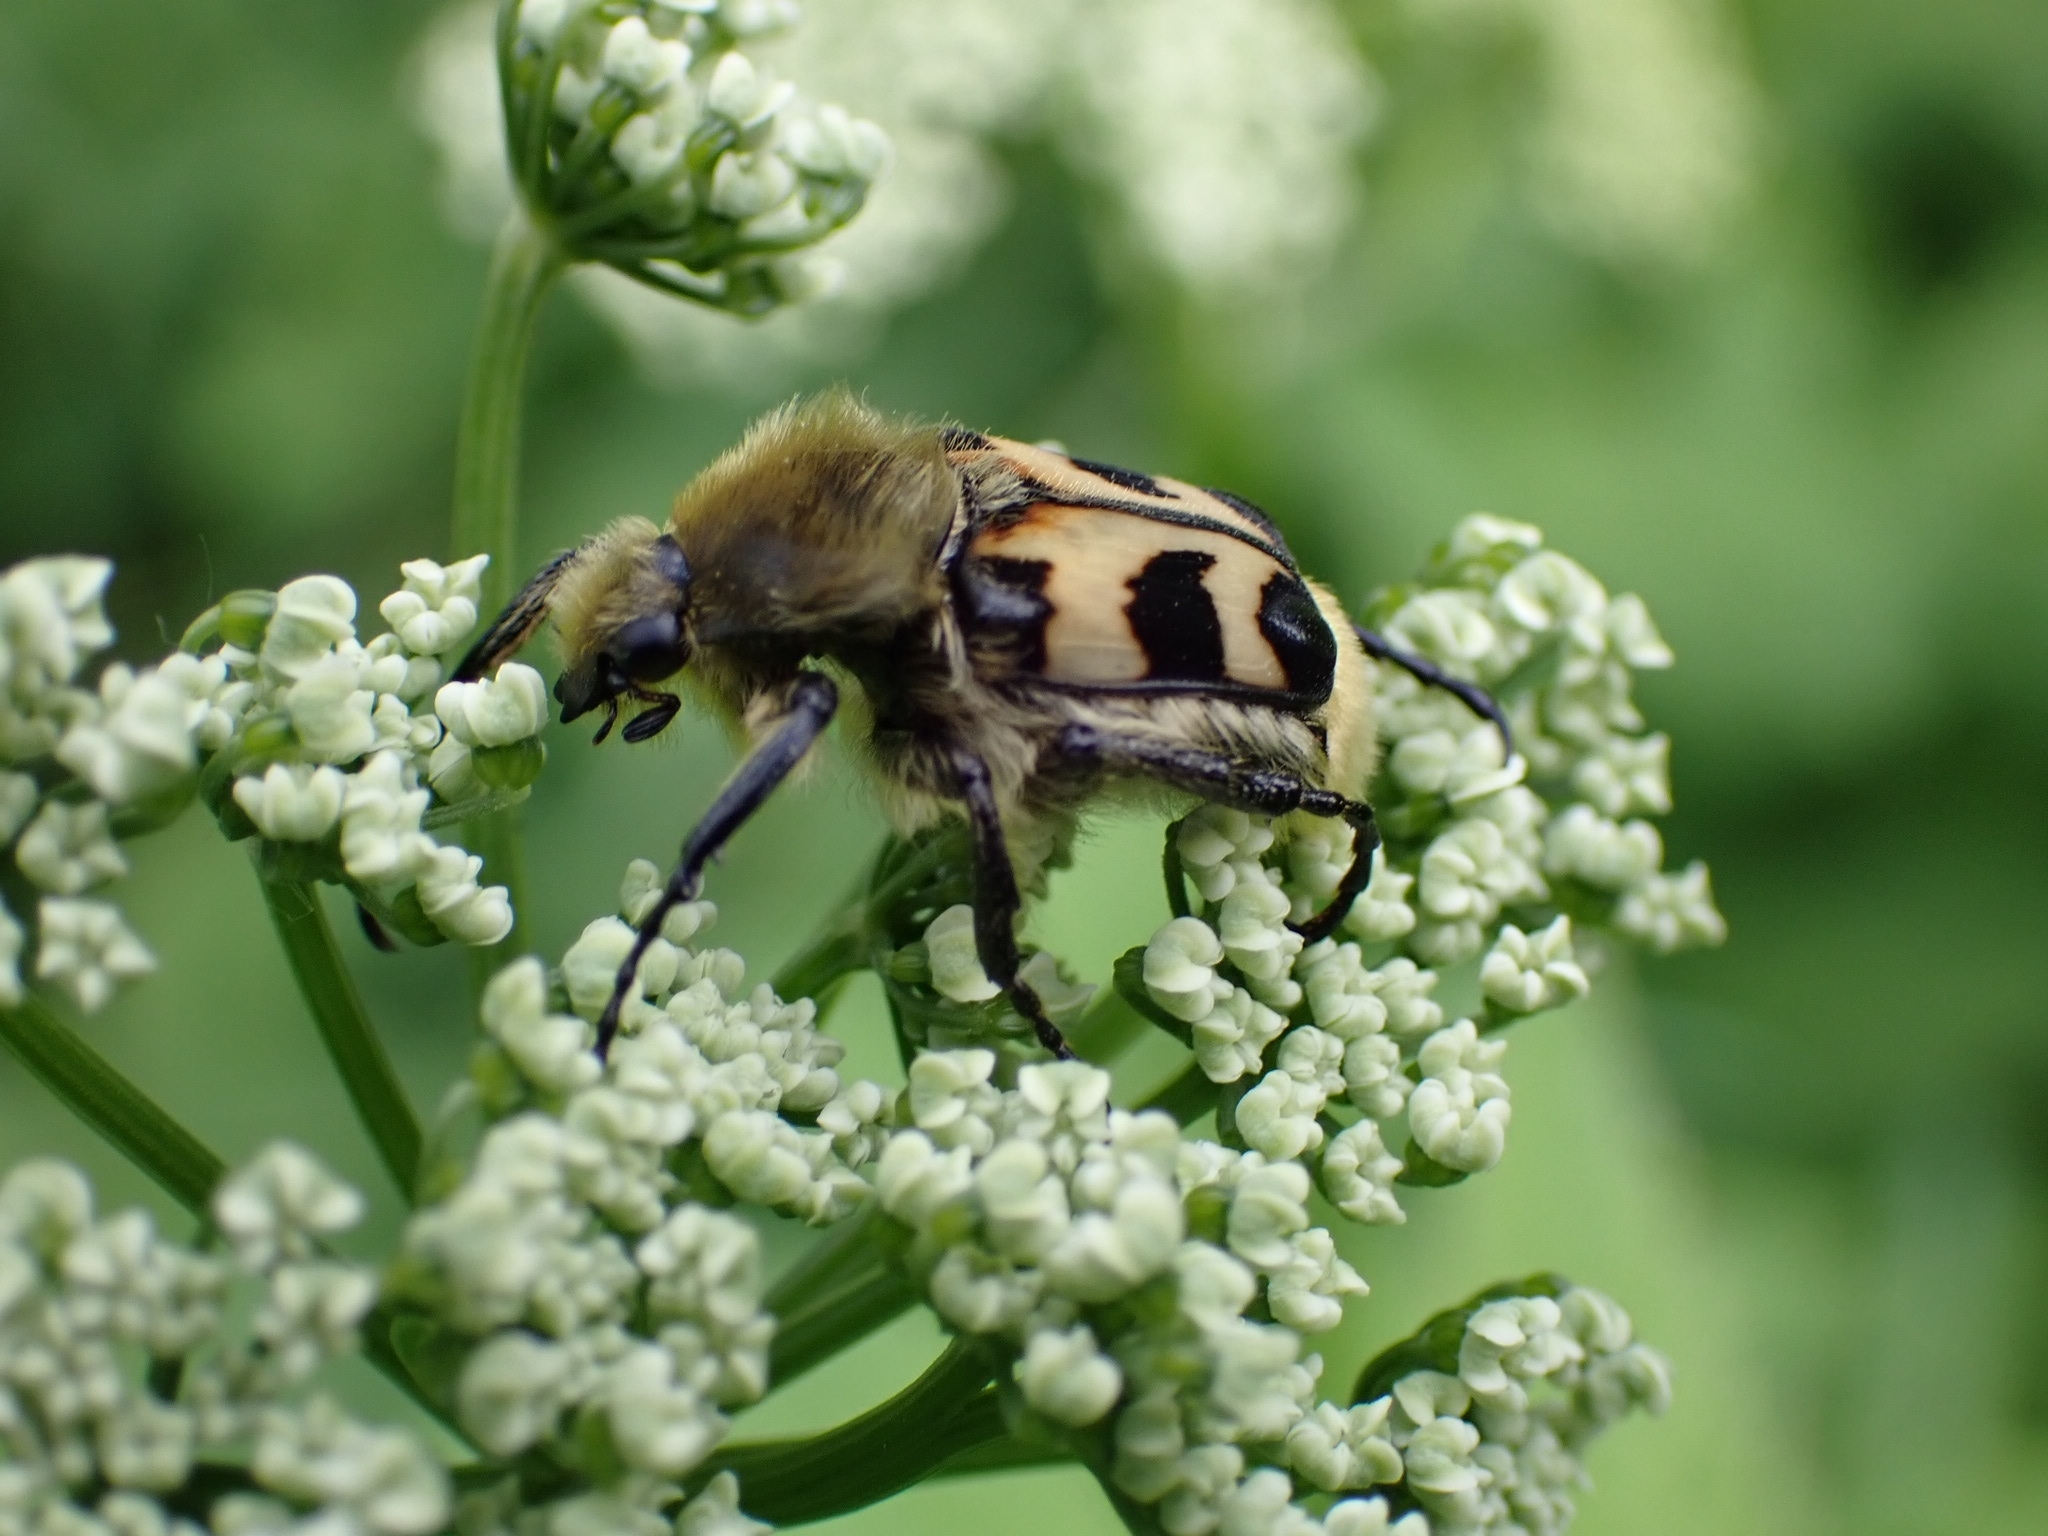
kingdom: Animalia
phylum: Arthropoda
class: Insecta
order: Coleoptera
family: Scarabaeidae
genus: Trichius
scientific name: Trichius fasciatus
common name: Bee beetle
